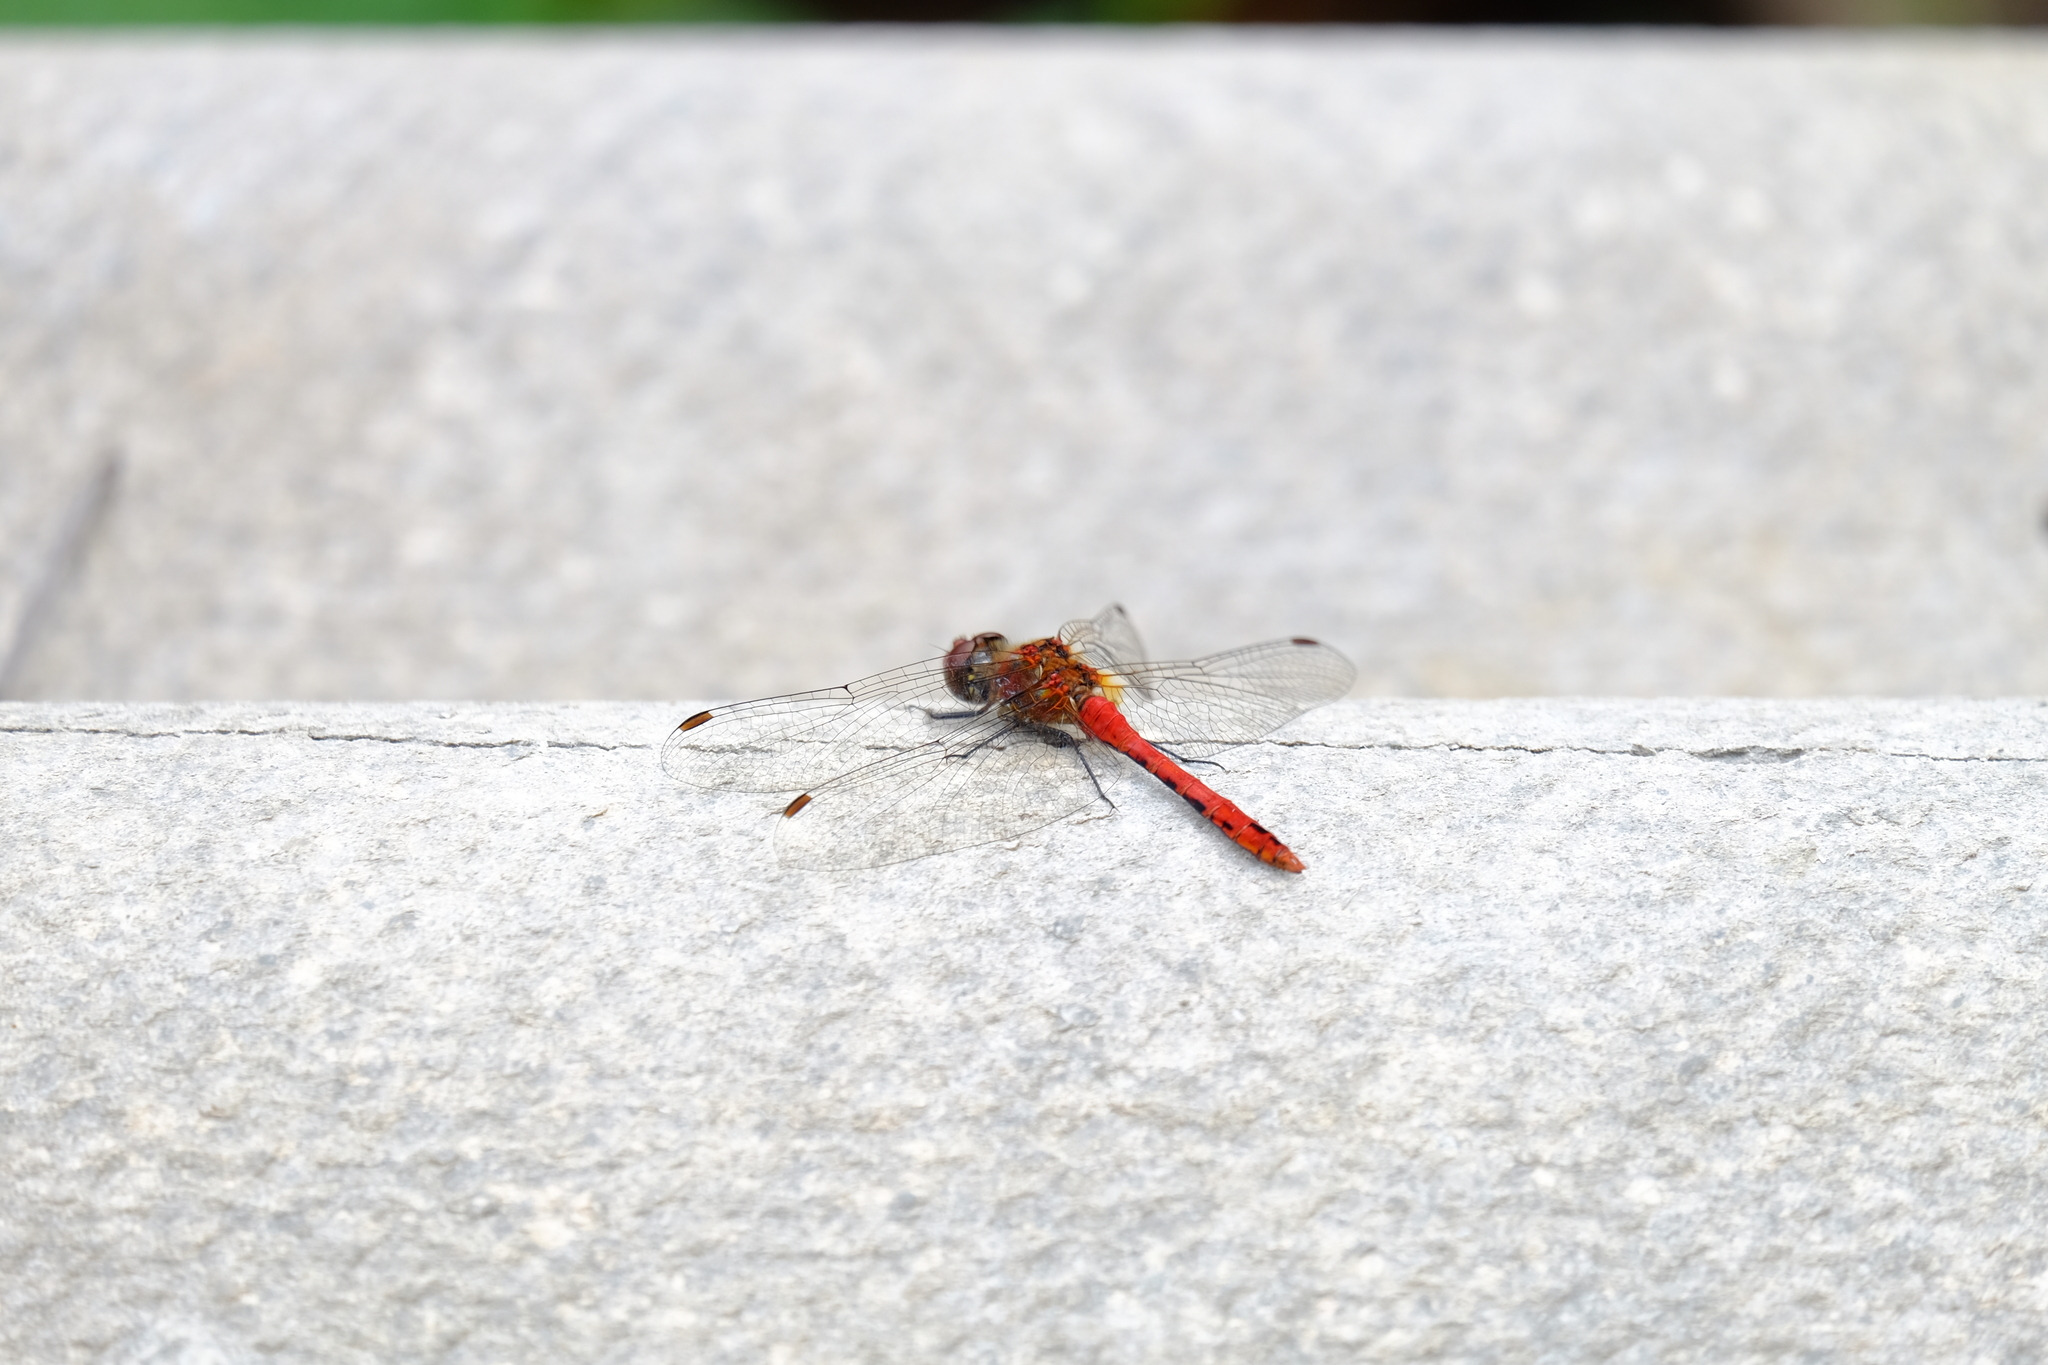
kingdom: Animalia
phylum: Arthropoda
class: Insecta
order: Odonata
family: Libellulidae
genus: Sympetrum
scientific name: Sympetrum sanguineum
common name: Ruddy darter
